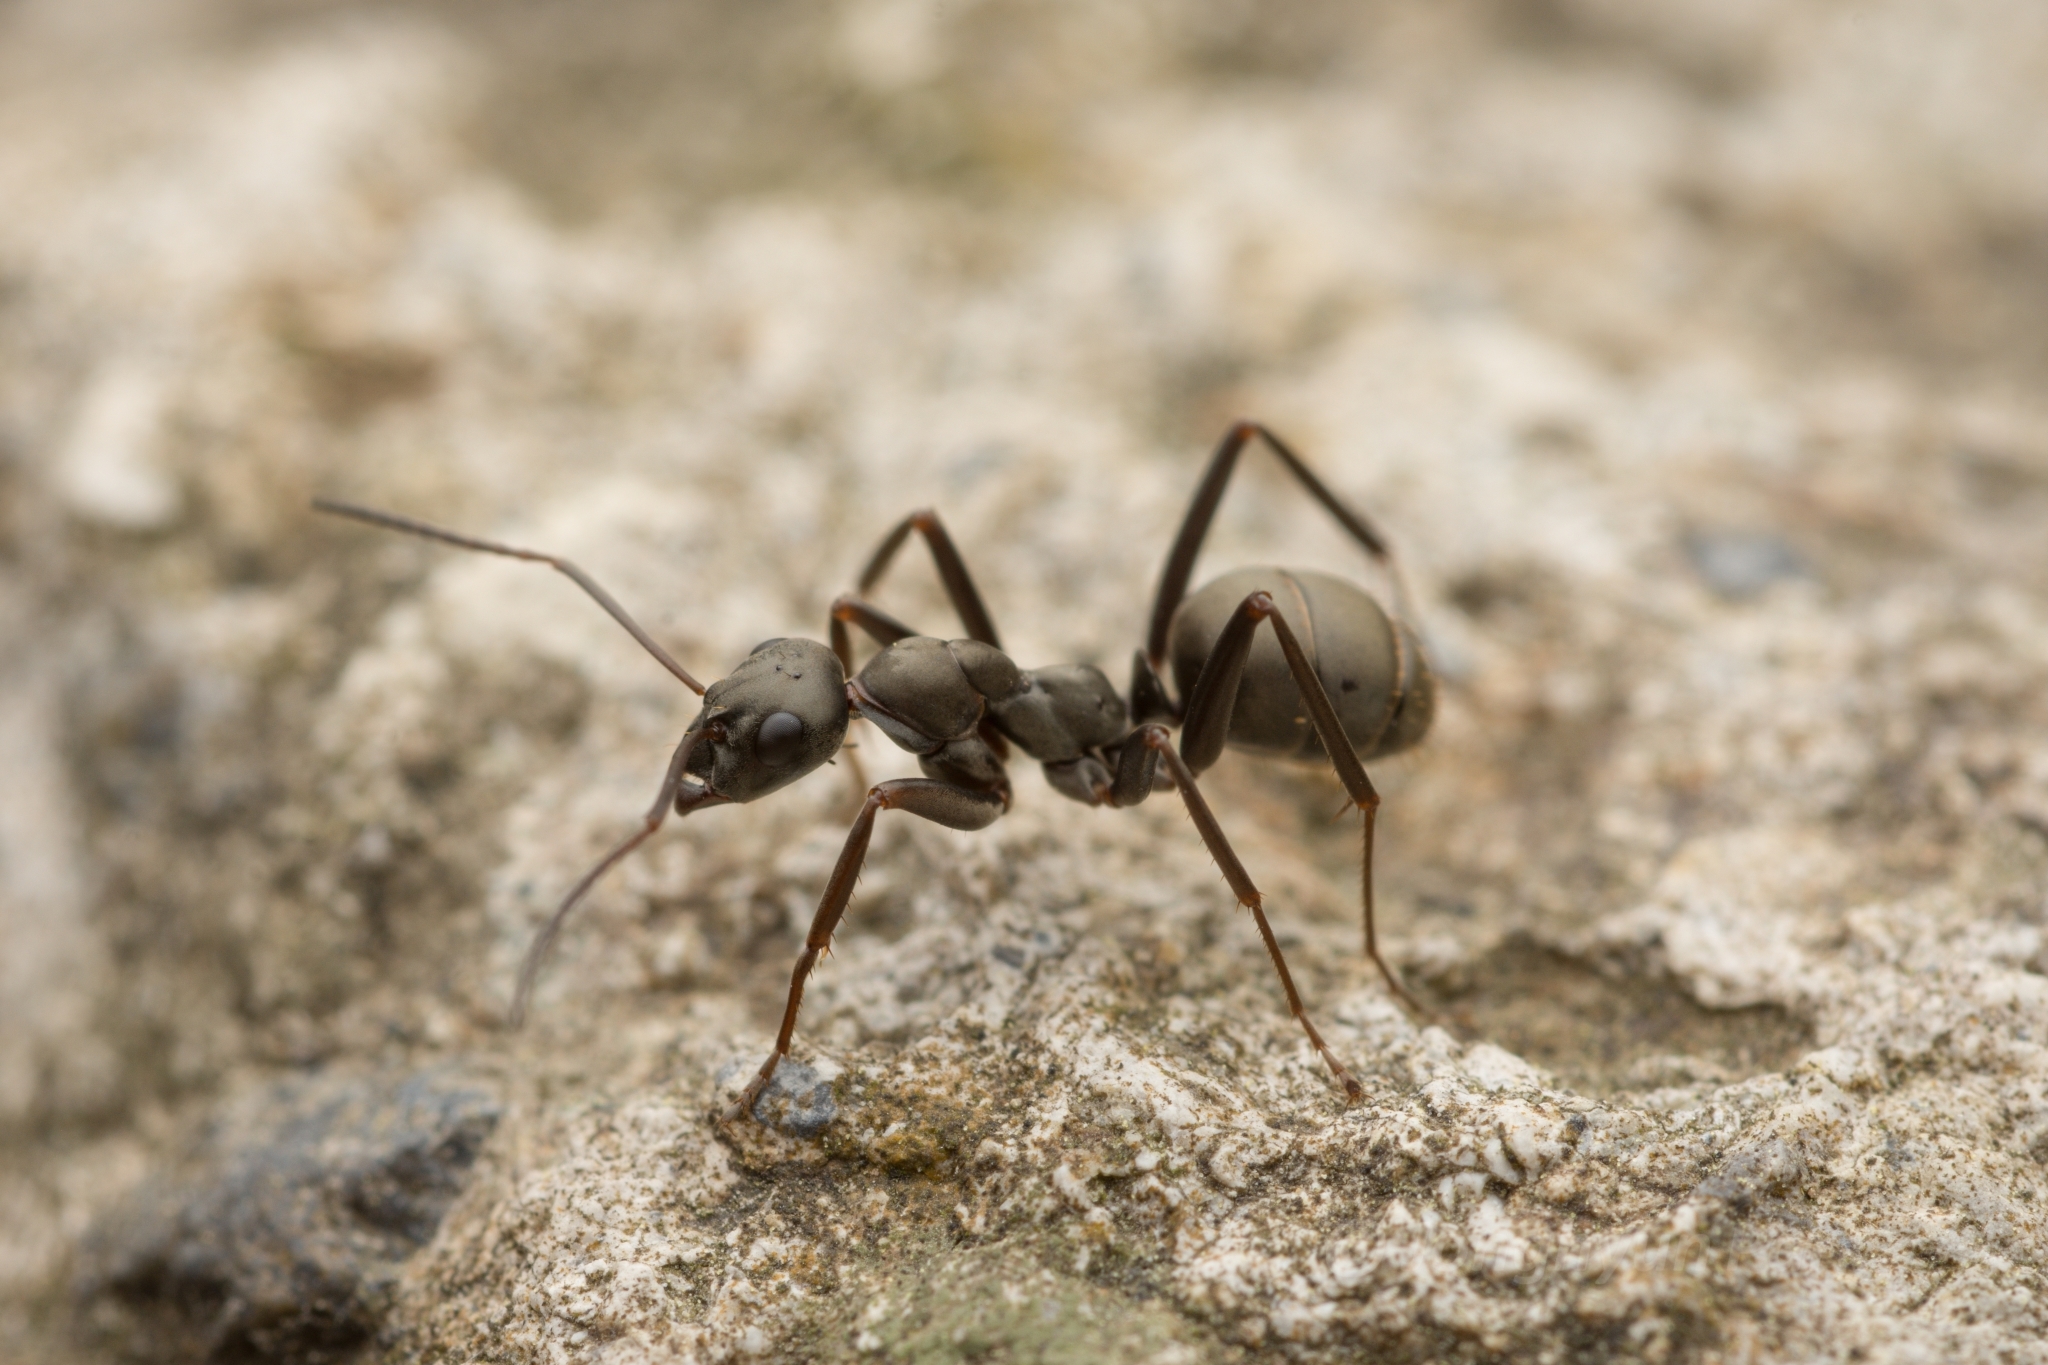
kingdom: Animalia
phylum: Arthropoda
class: Insecta
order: Hymenoptera
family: Formicidae
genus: Formica
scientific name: Formica hayashi
